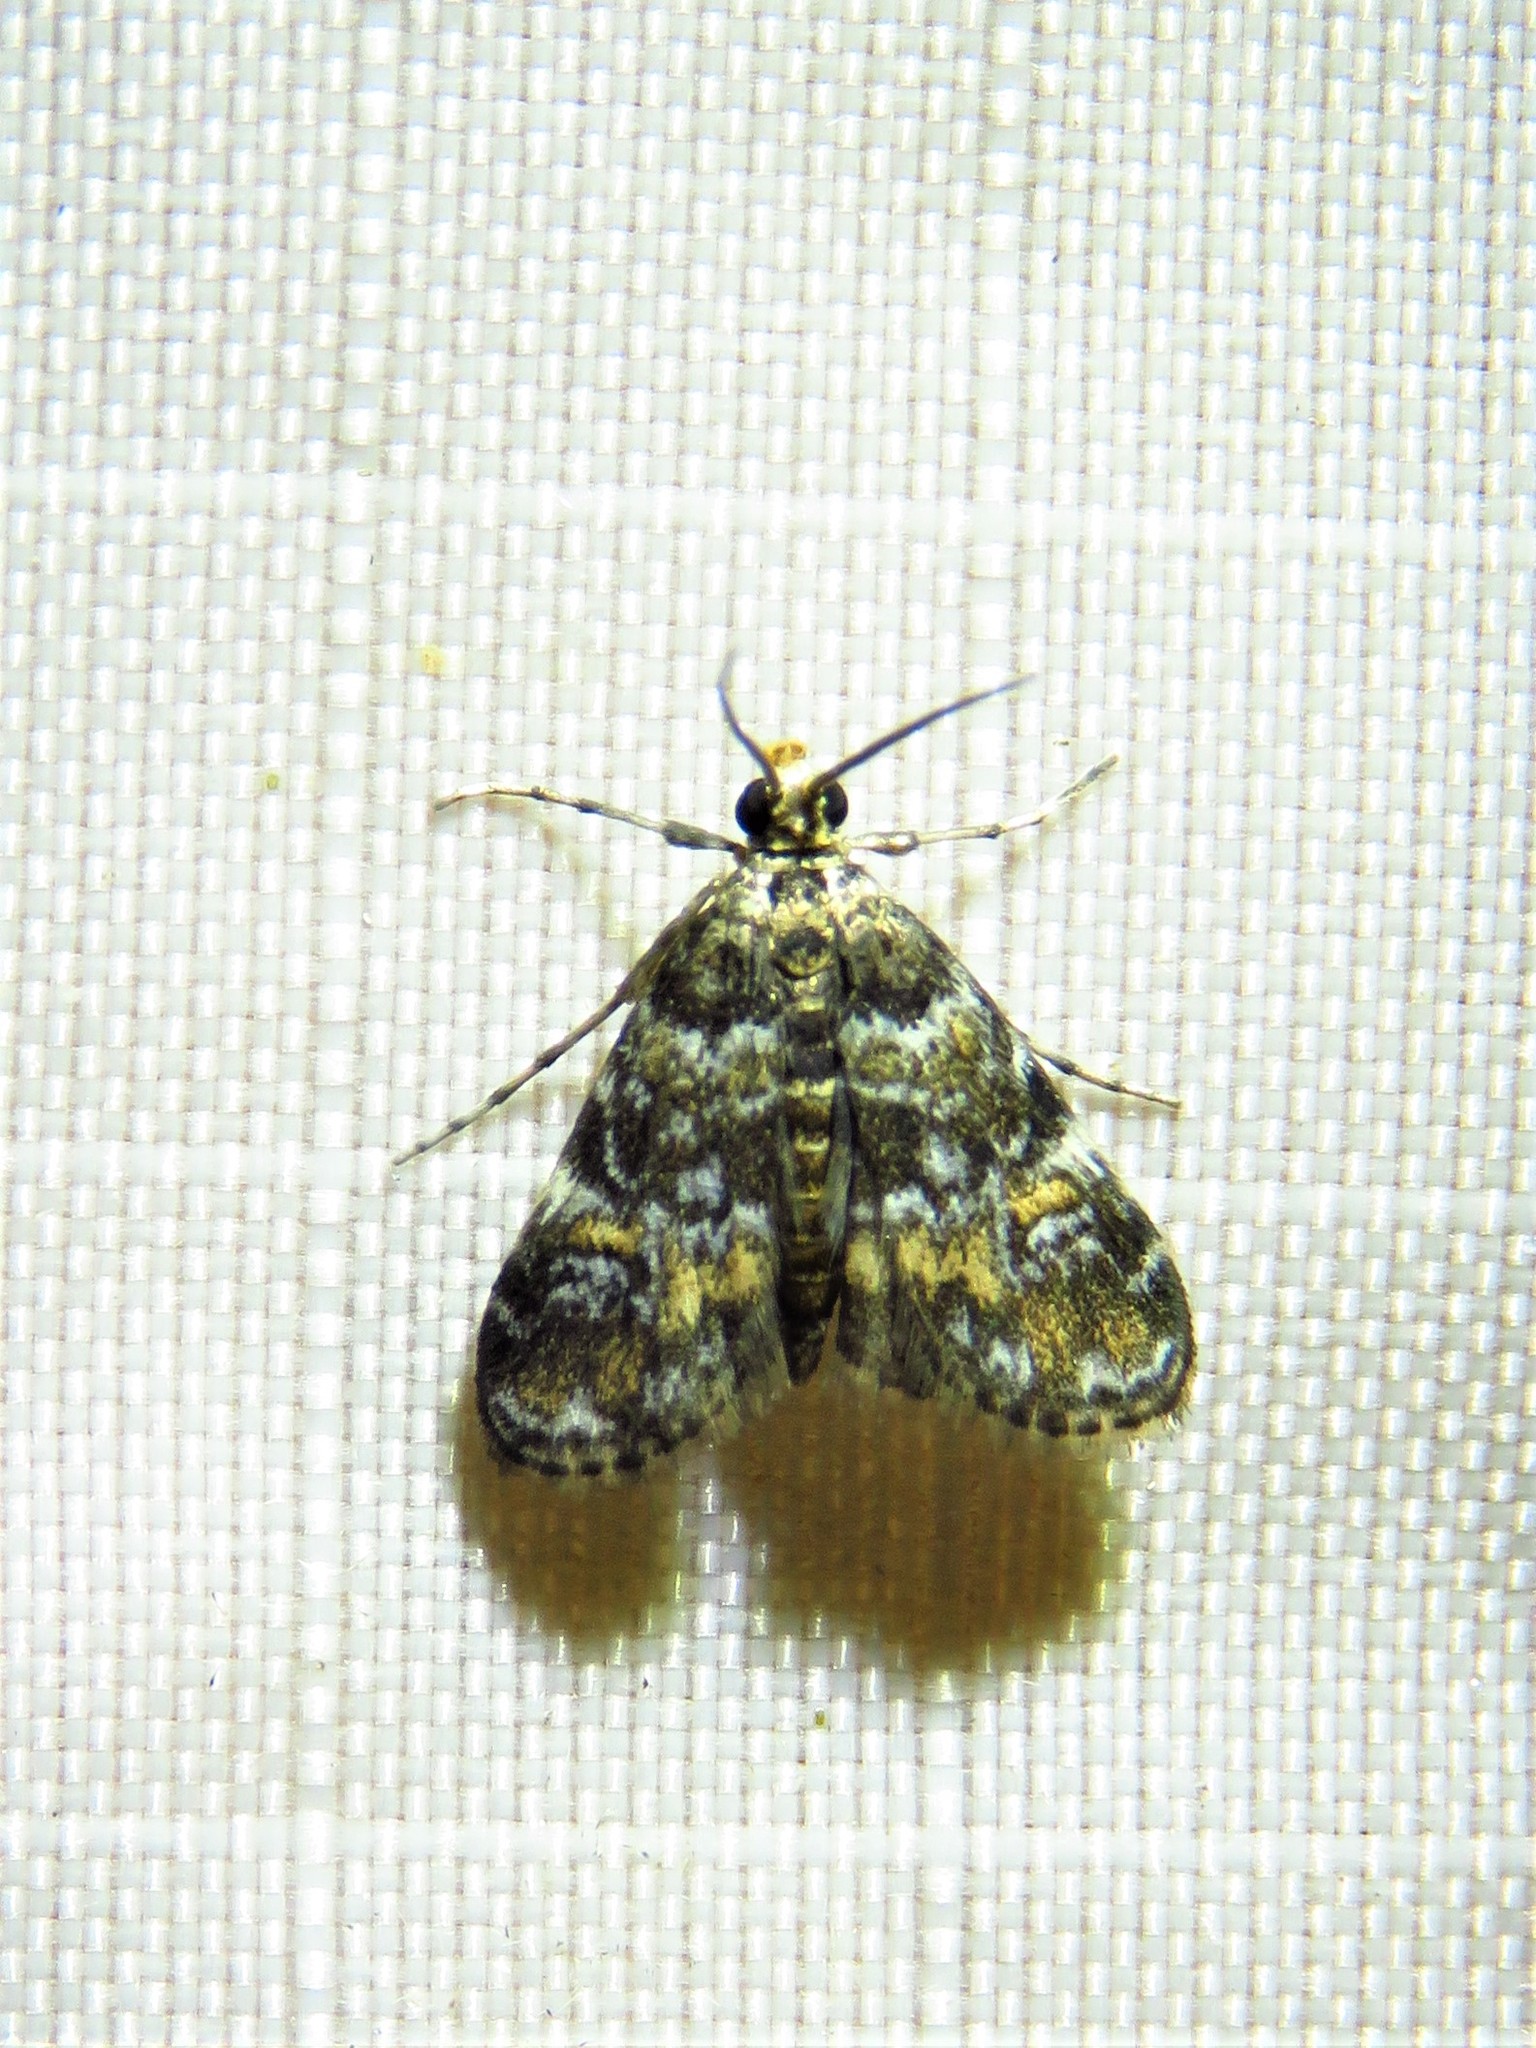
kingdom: Animalia
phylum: Arthropoda
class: Insecta
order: Lepidoptera
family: Crambidae
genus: Elophila
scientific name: Elophila obliteralis
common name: Waterlily leafcutter moth
